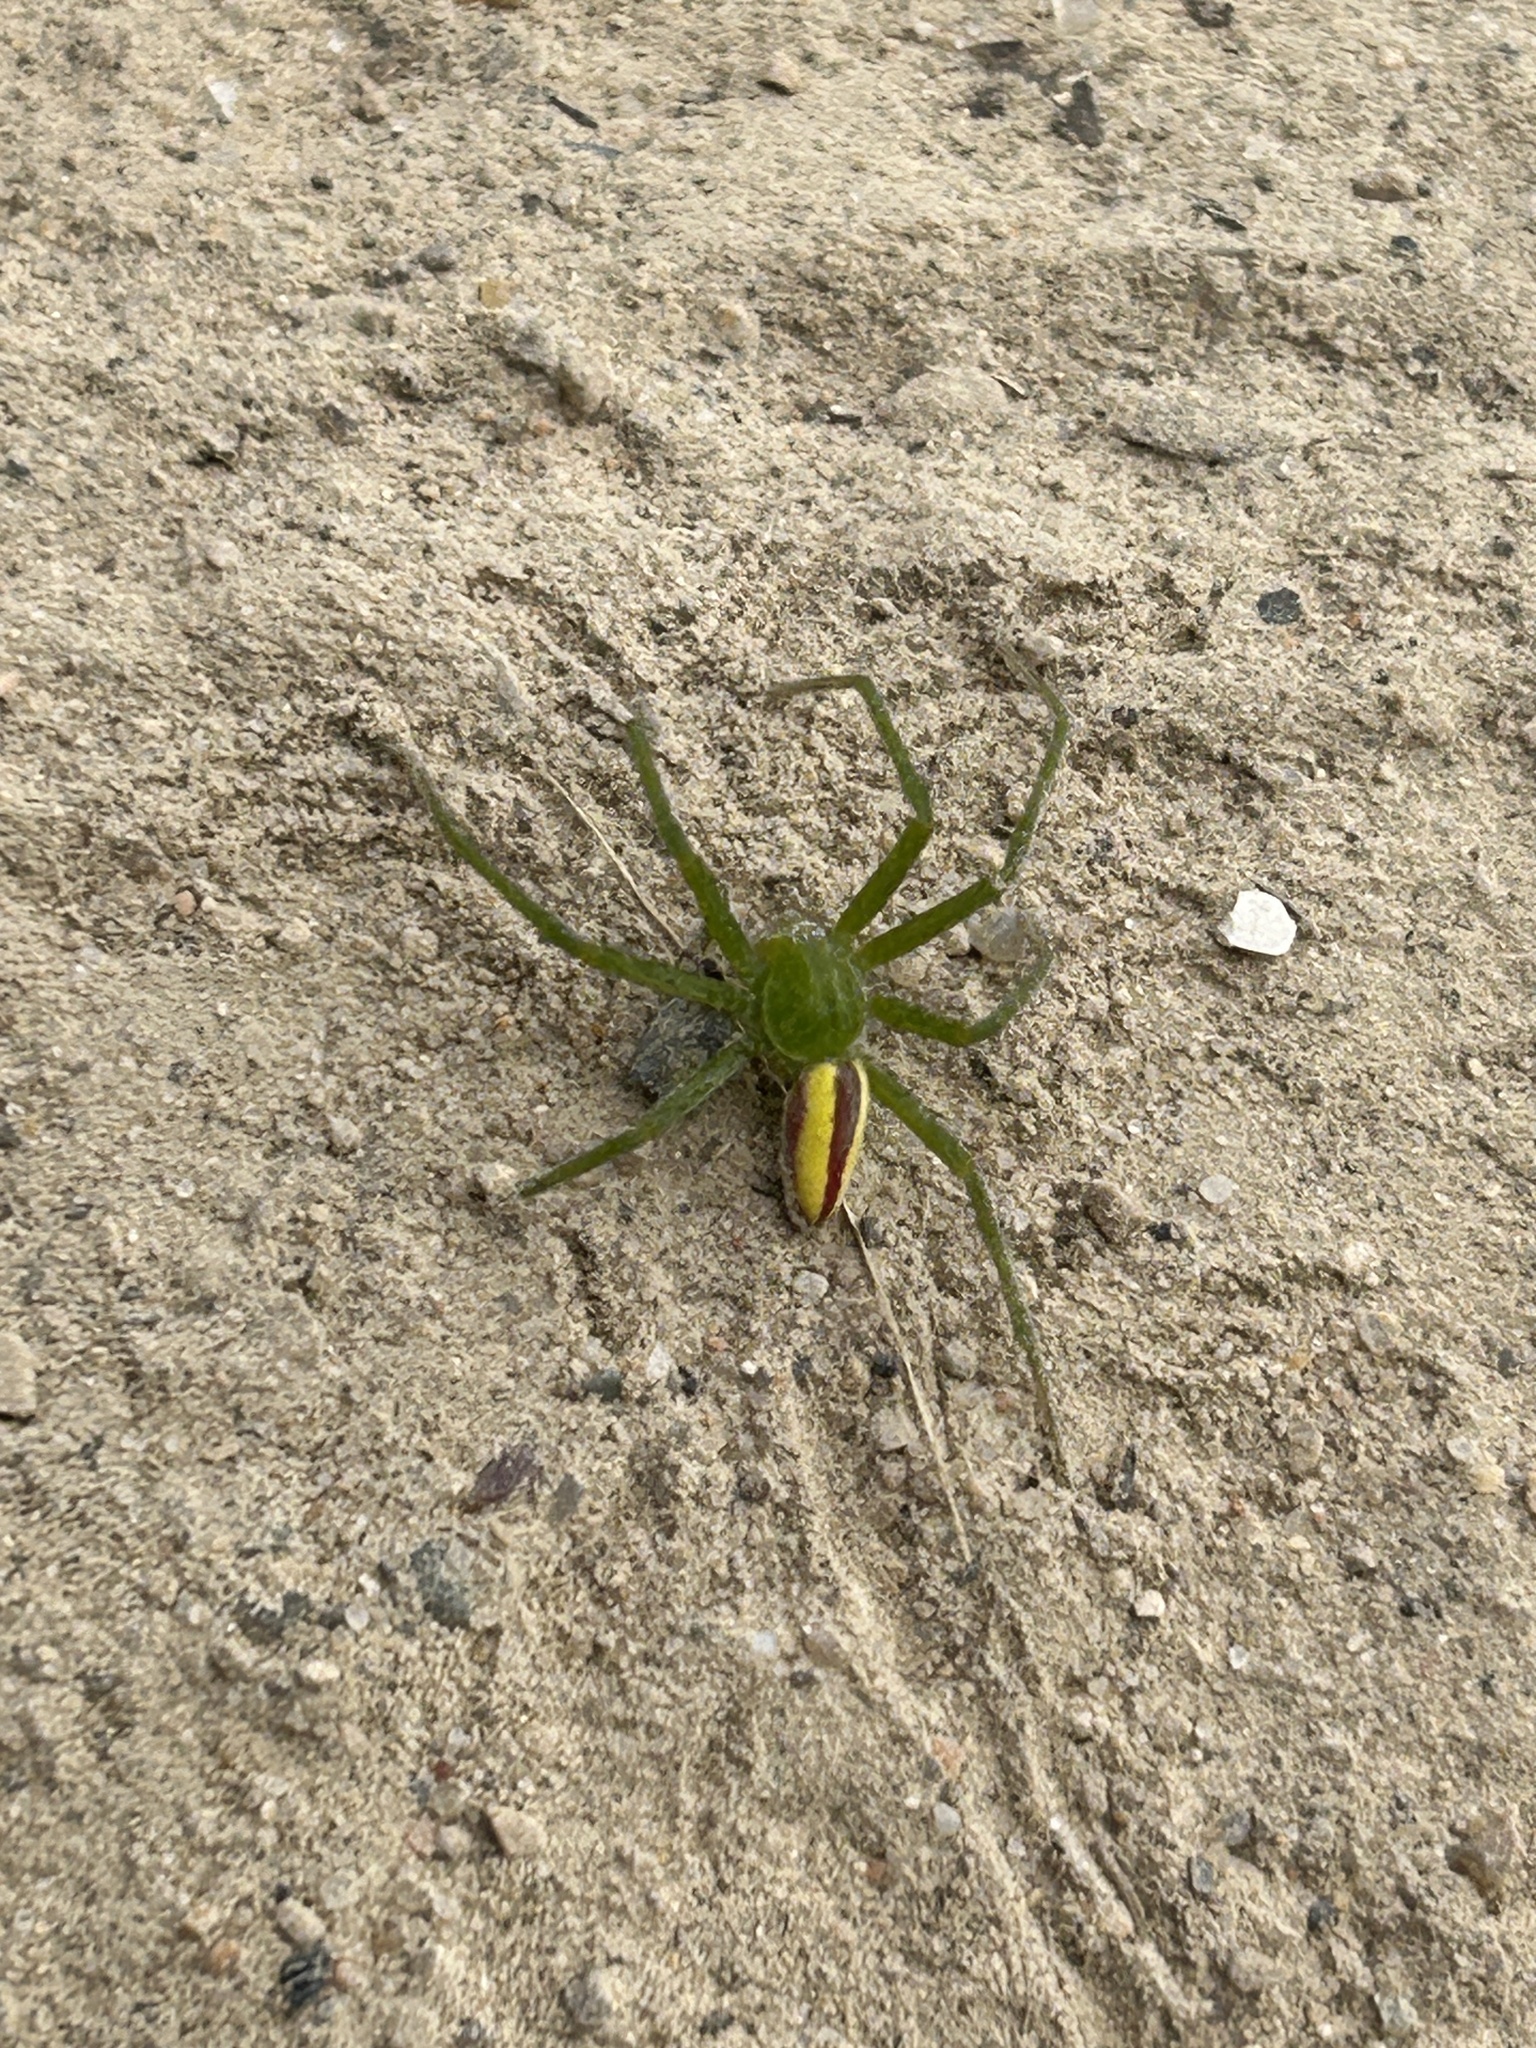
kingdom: Animalia
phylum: Arthropoda
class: Arachnida
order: Araneae
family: Sparassidae
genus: Micrommata
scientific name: Micrommata virescens
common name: Green spider
